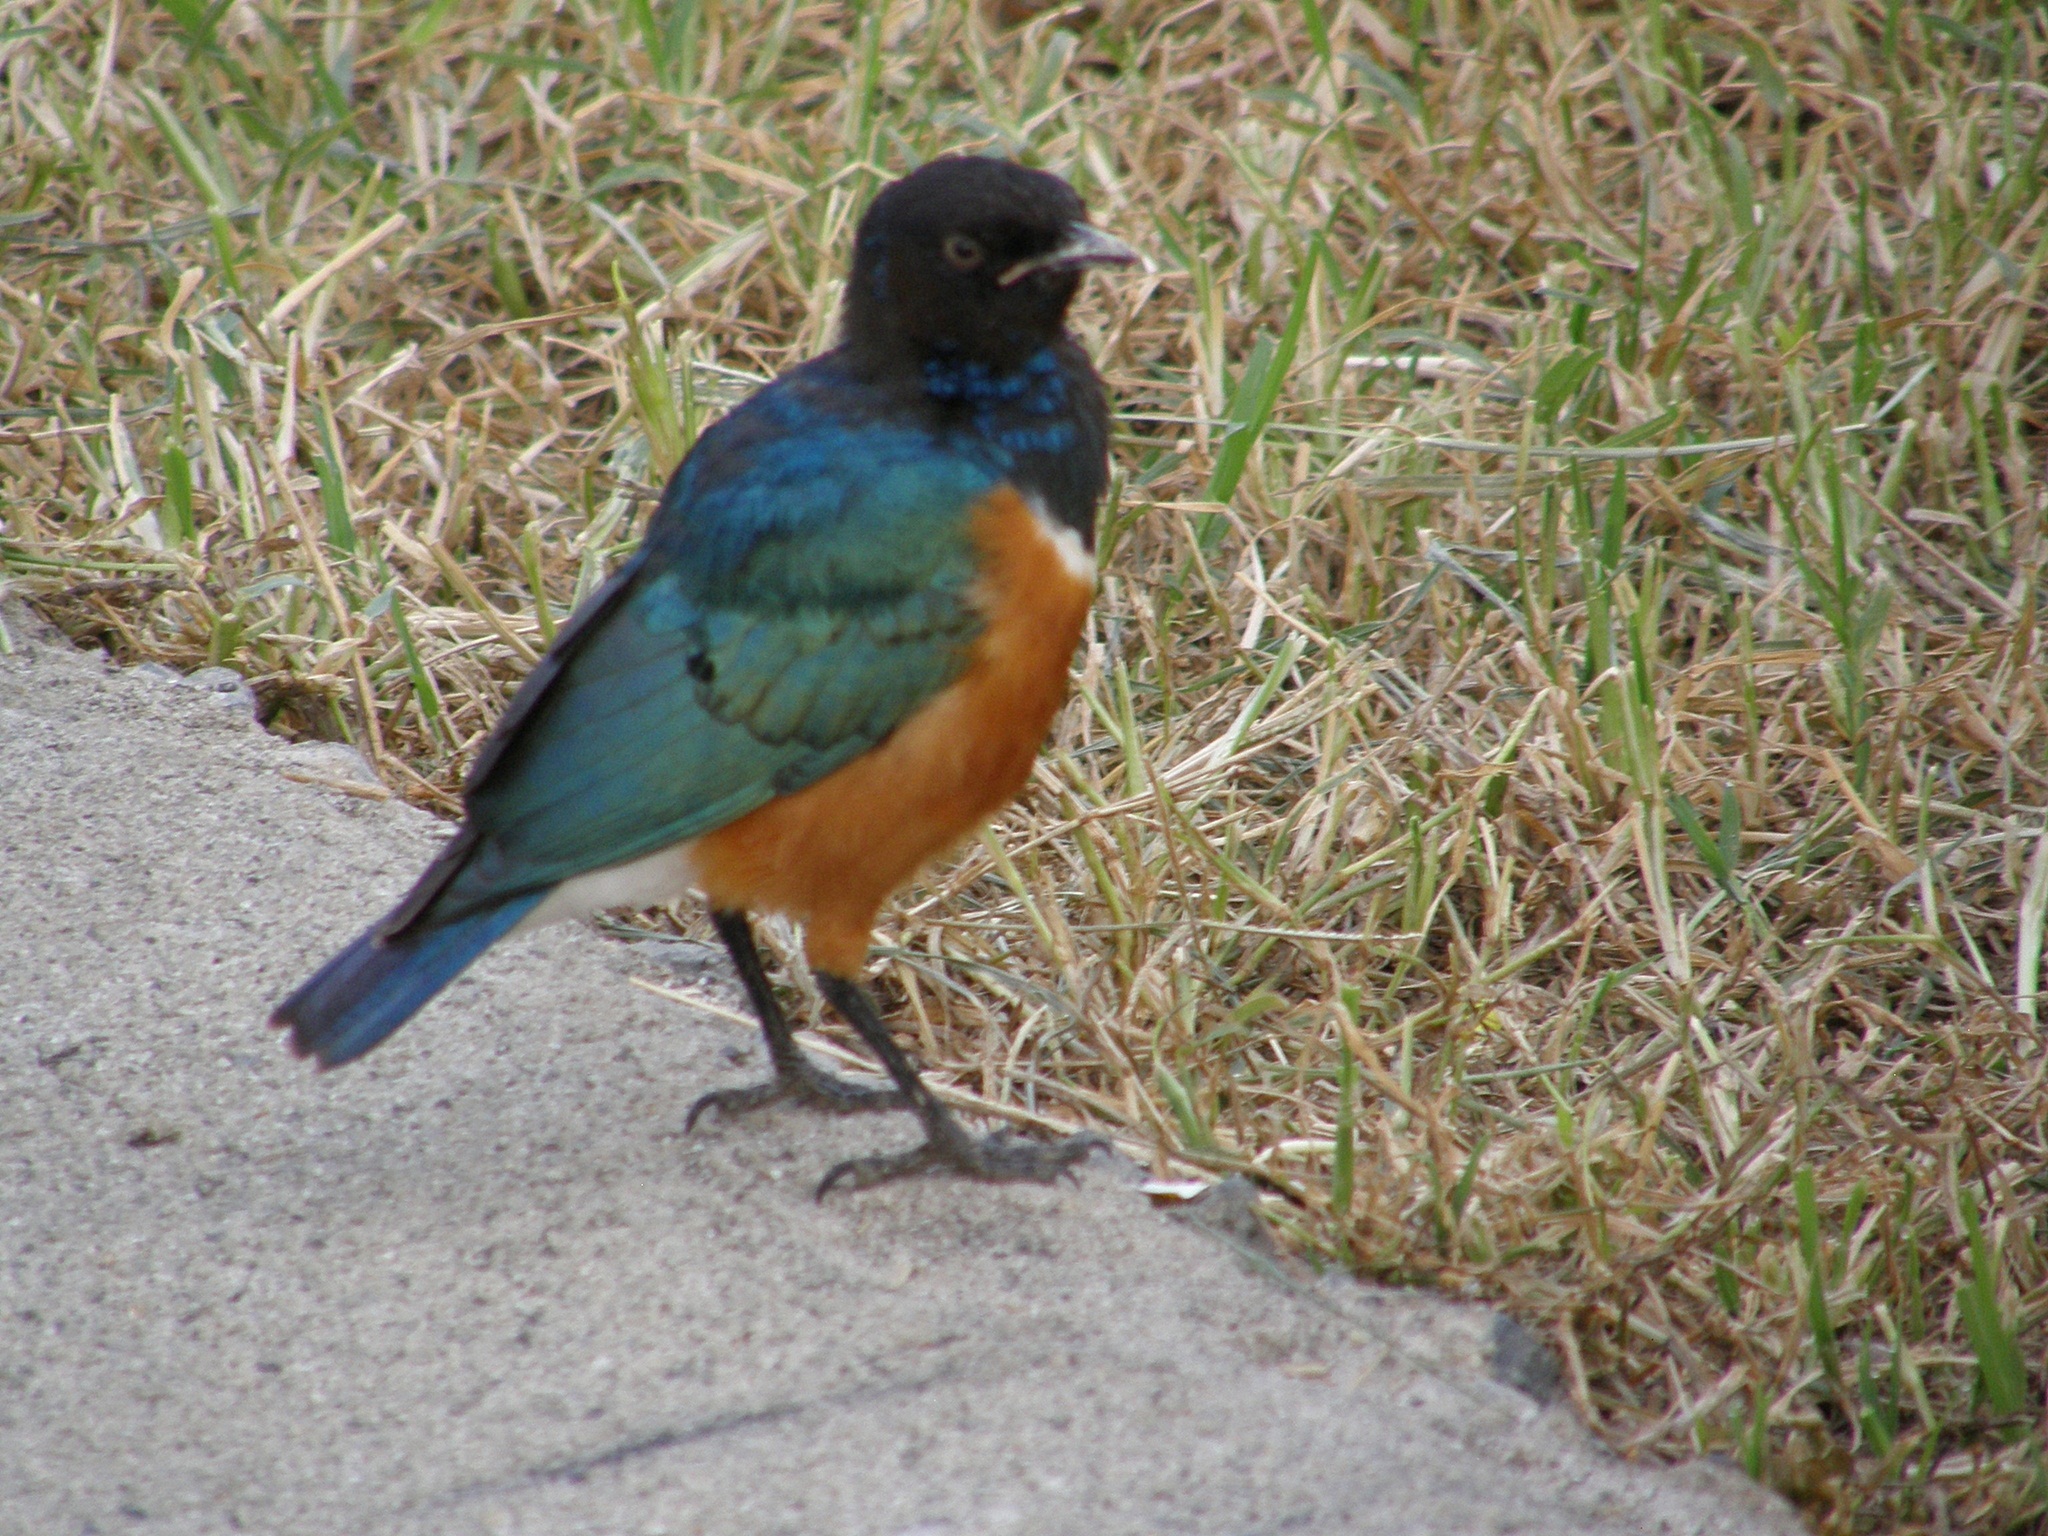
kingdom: Animalia
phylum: Chordata
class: Aves
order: Passeriformes
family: Sturnidae
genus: Lamprotornis
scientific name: Lamprotornis superbus
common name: Superb starling
